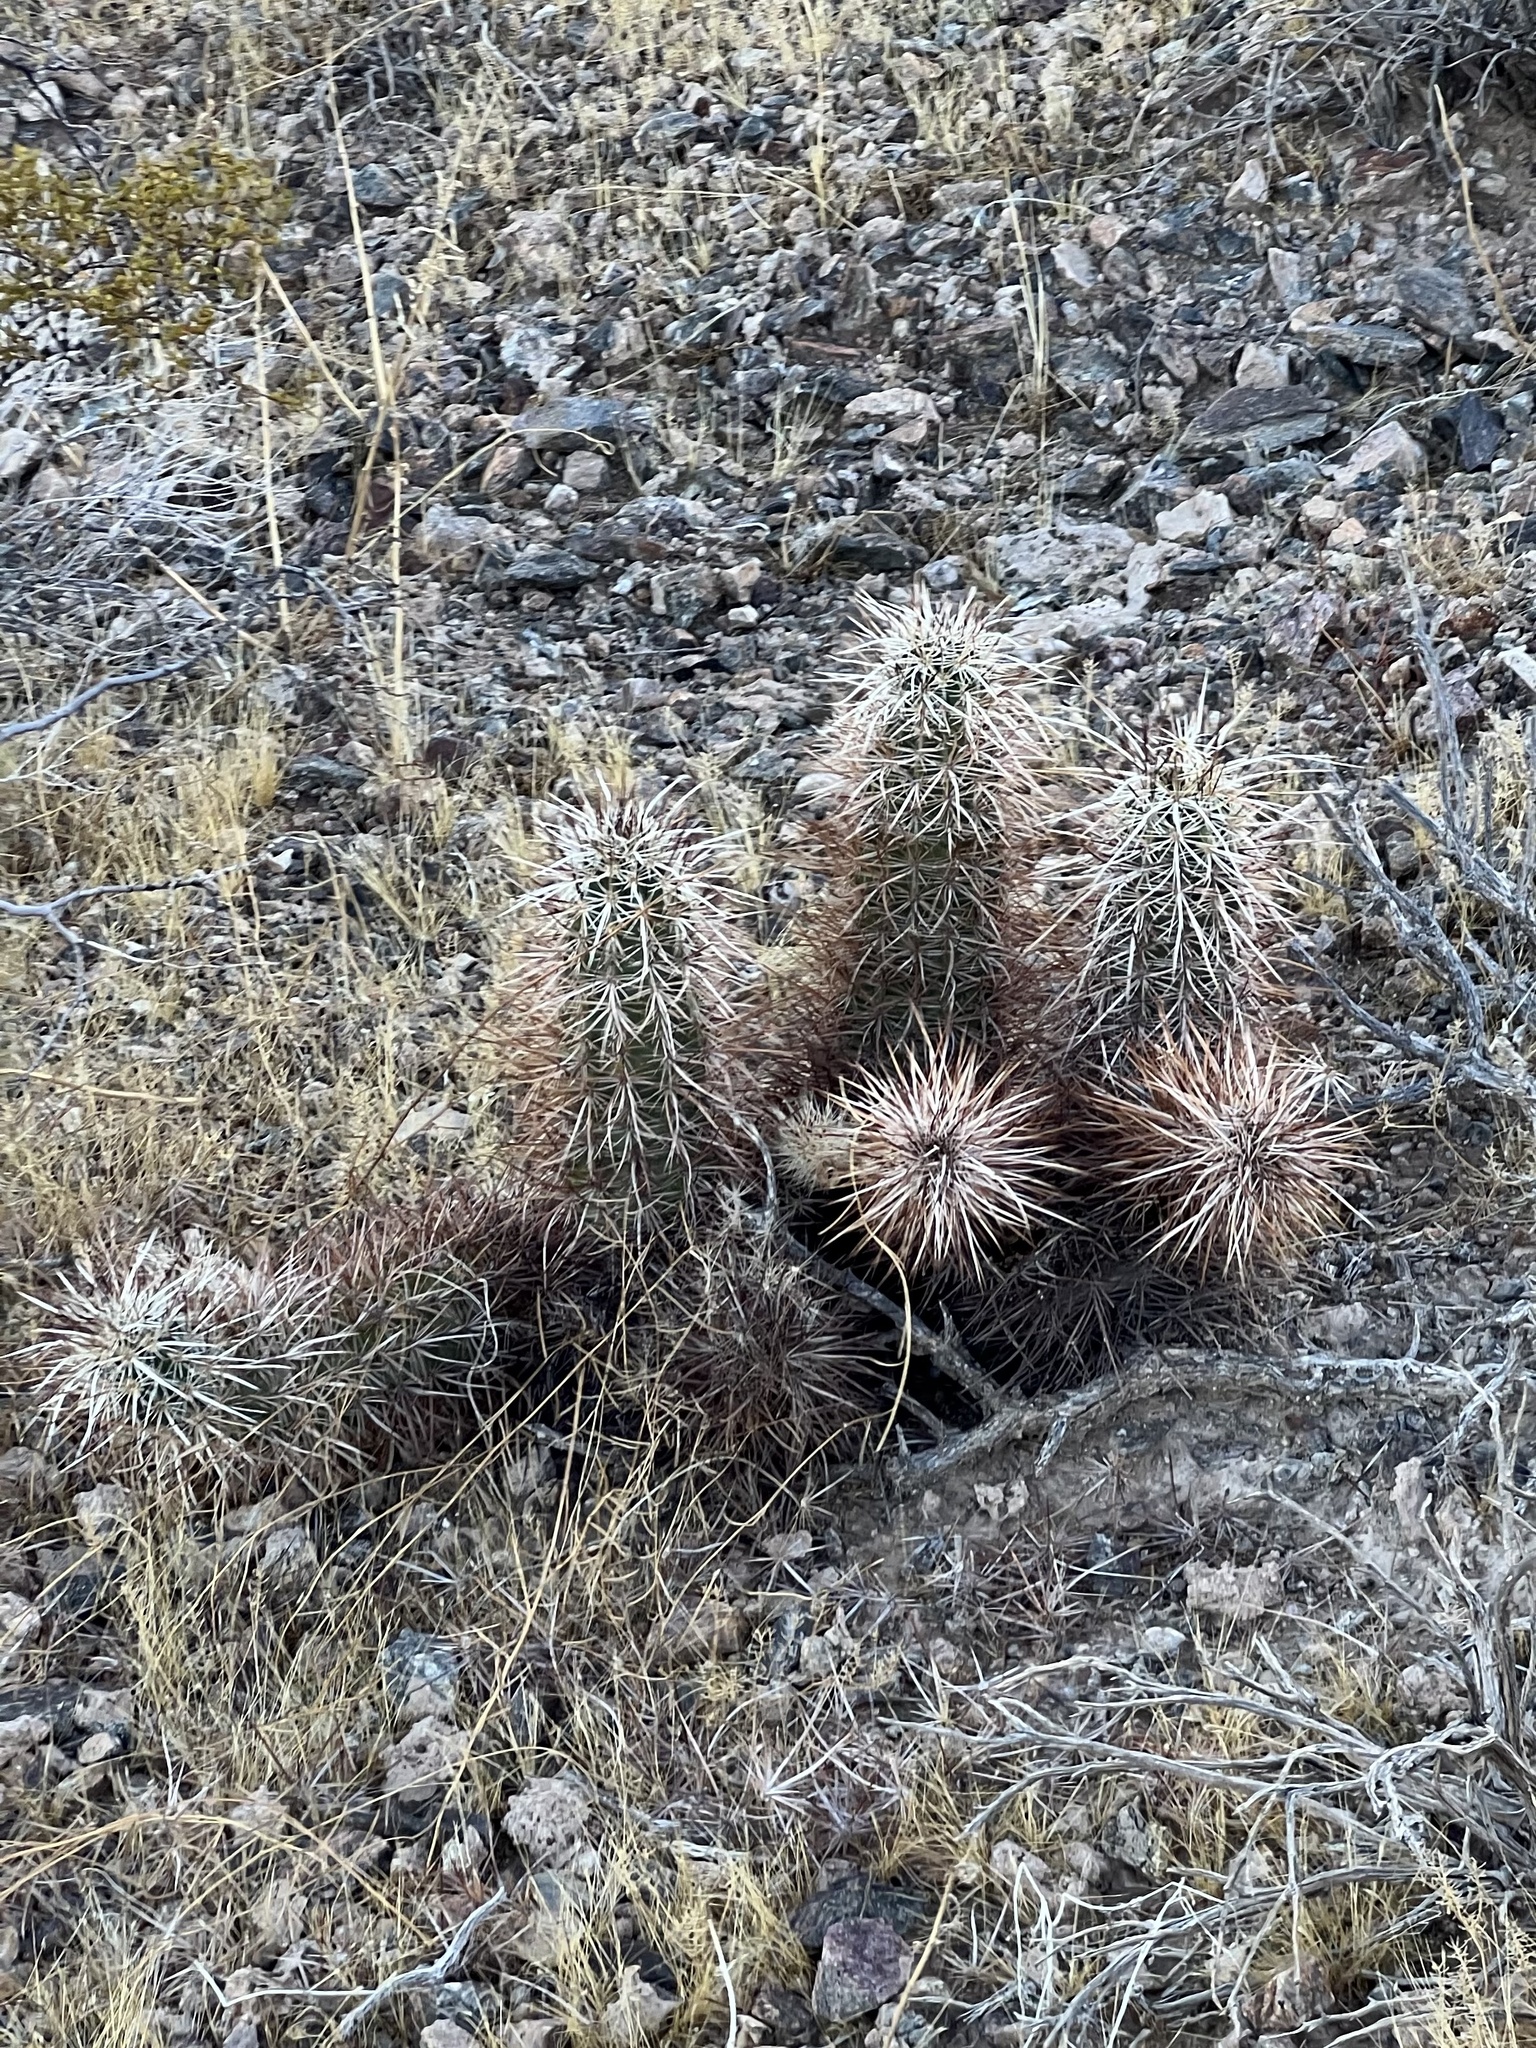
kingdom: Plantae
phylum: Tracheophyta
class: Magnoliopsida
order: Caryophyllales
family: Cactaceae
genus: Echinocereus
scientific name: Echinocereus engelmannii
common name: Engelmann's hedgehog cactus
